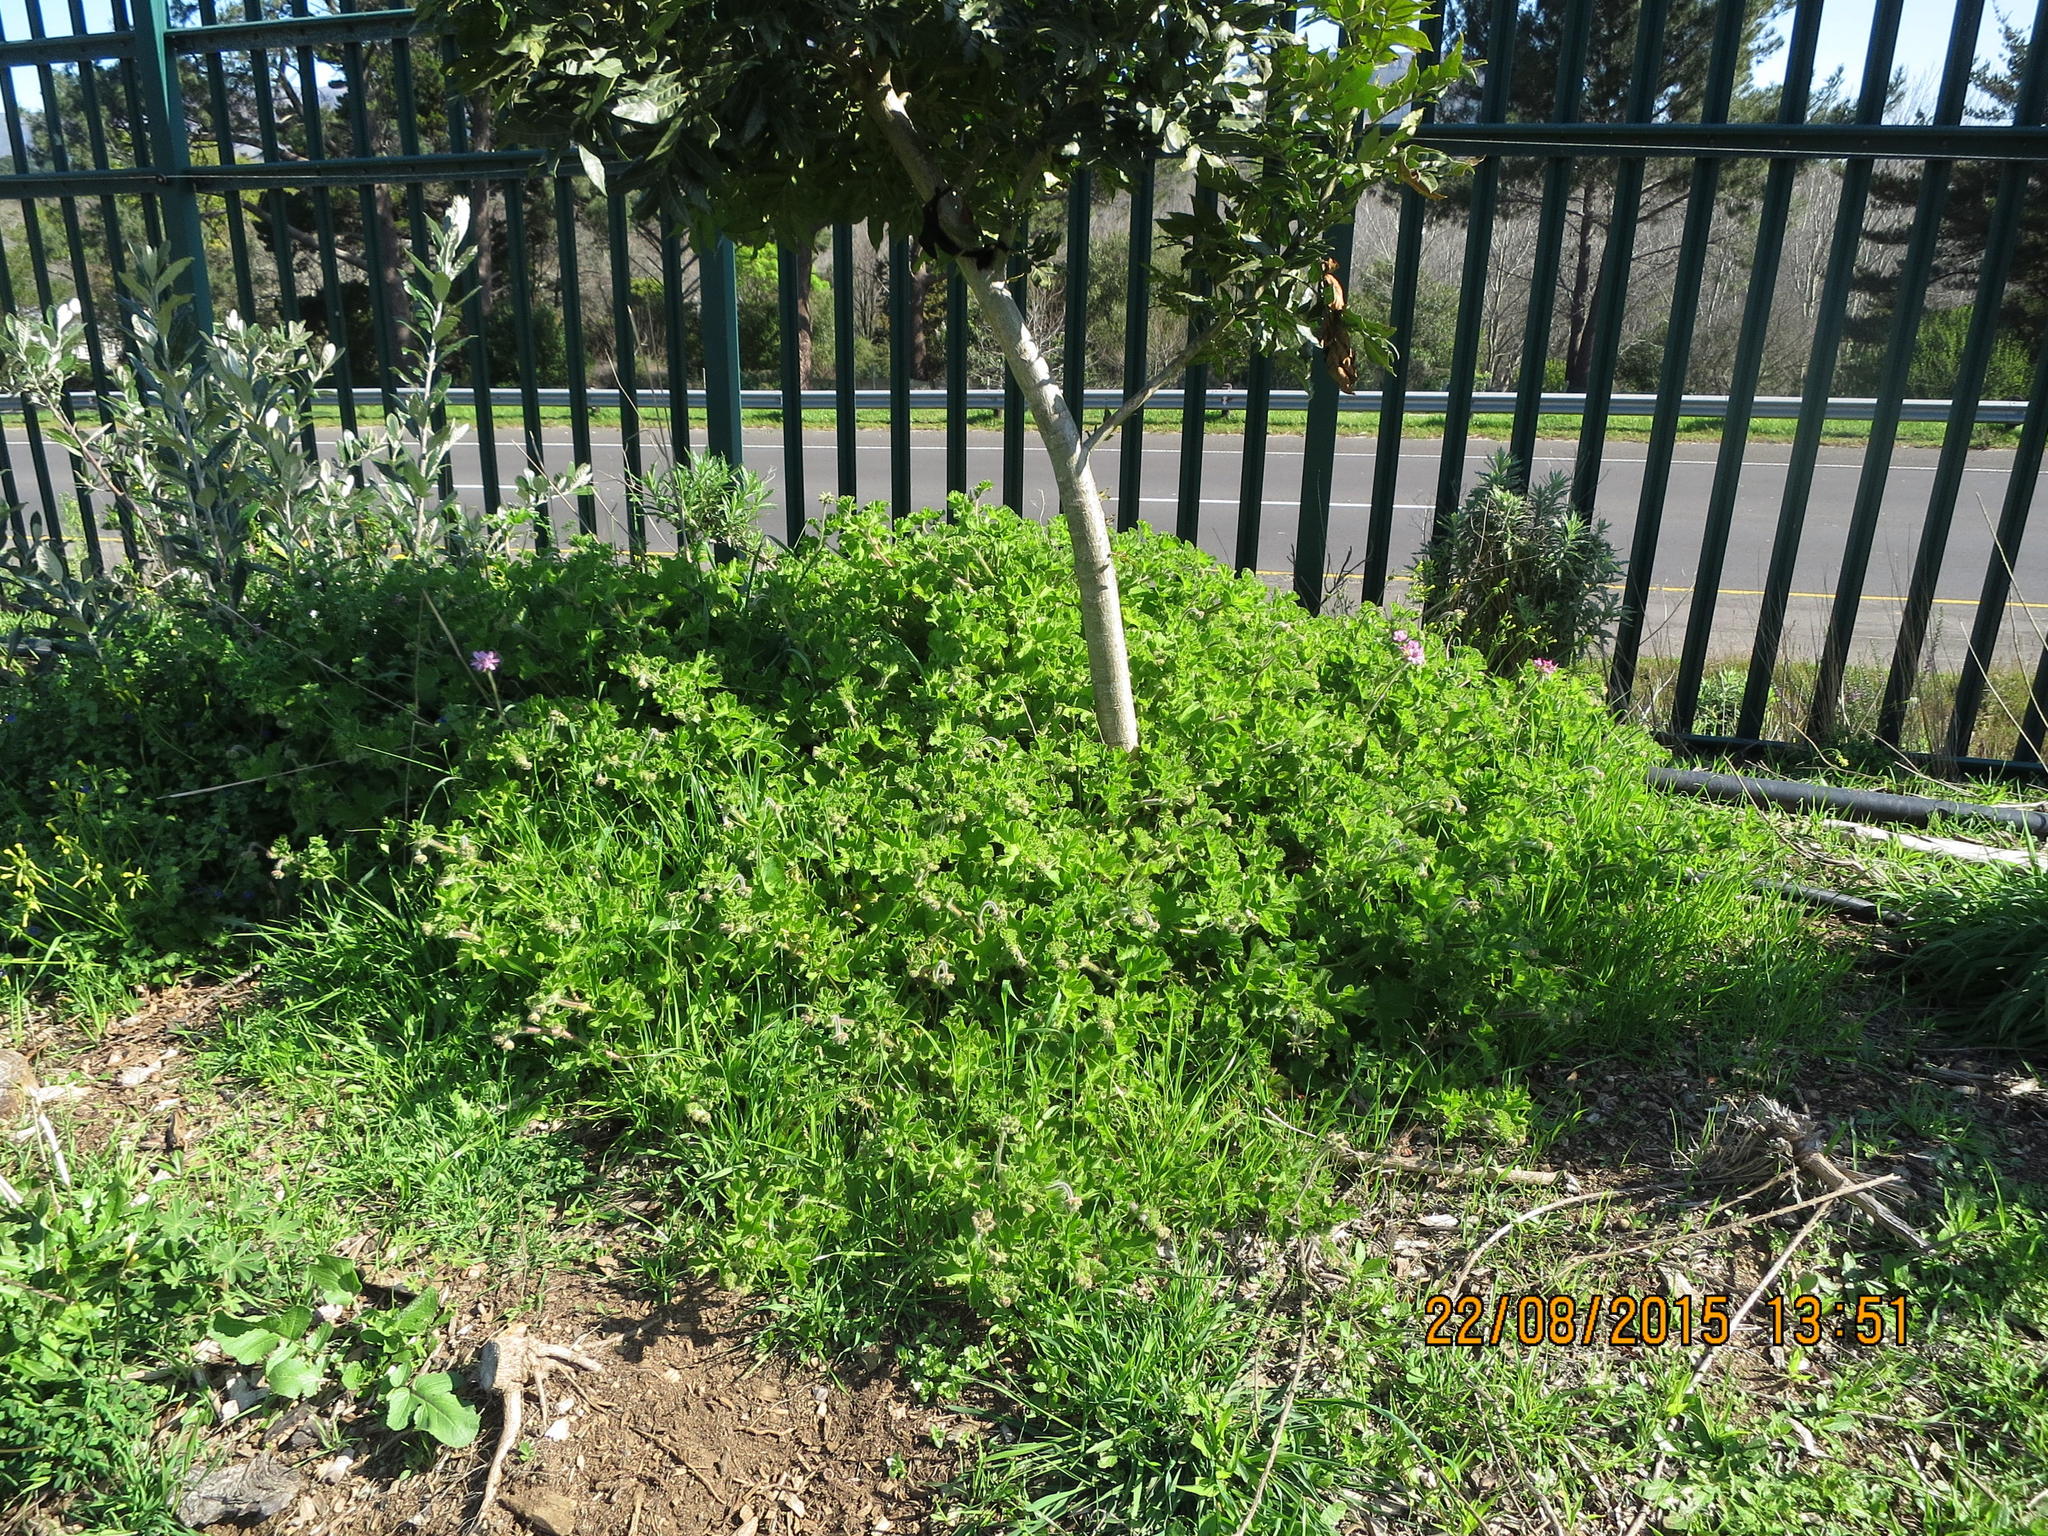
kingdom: Plantae
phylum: Tracheophyta
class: Magnoliopsida
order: Geraniales
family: Geraniaceae
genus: Pelargonium
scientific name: Pelargonium capitatum
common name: Rose scented geranium
